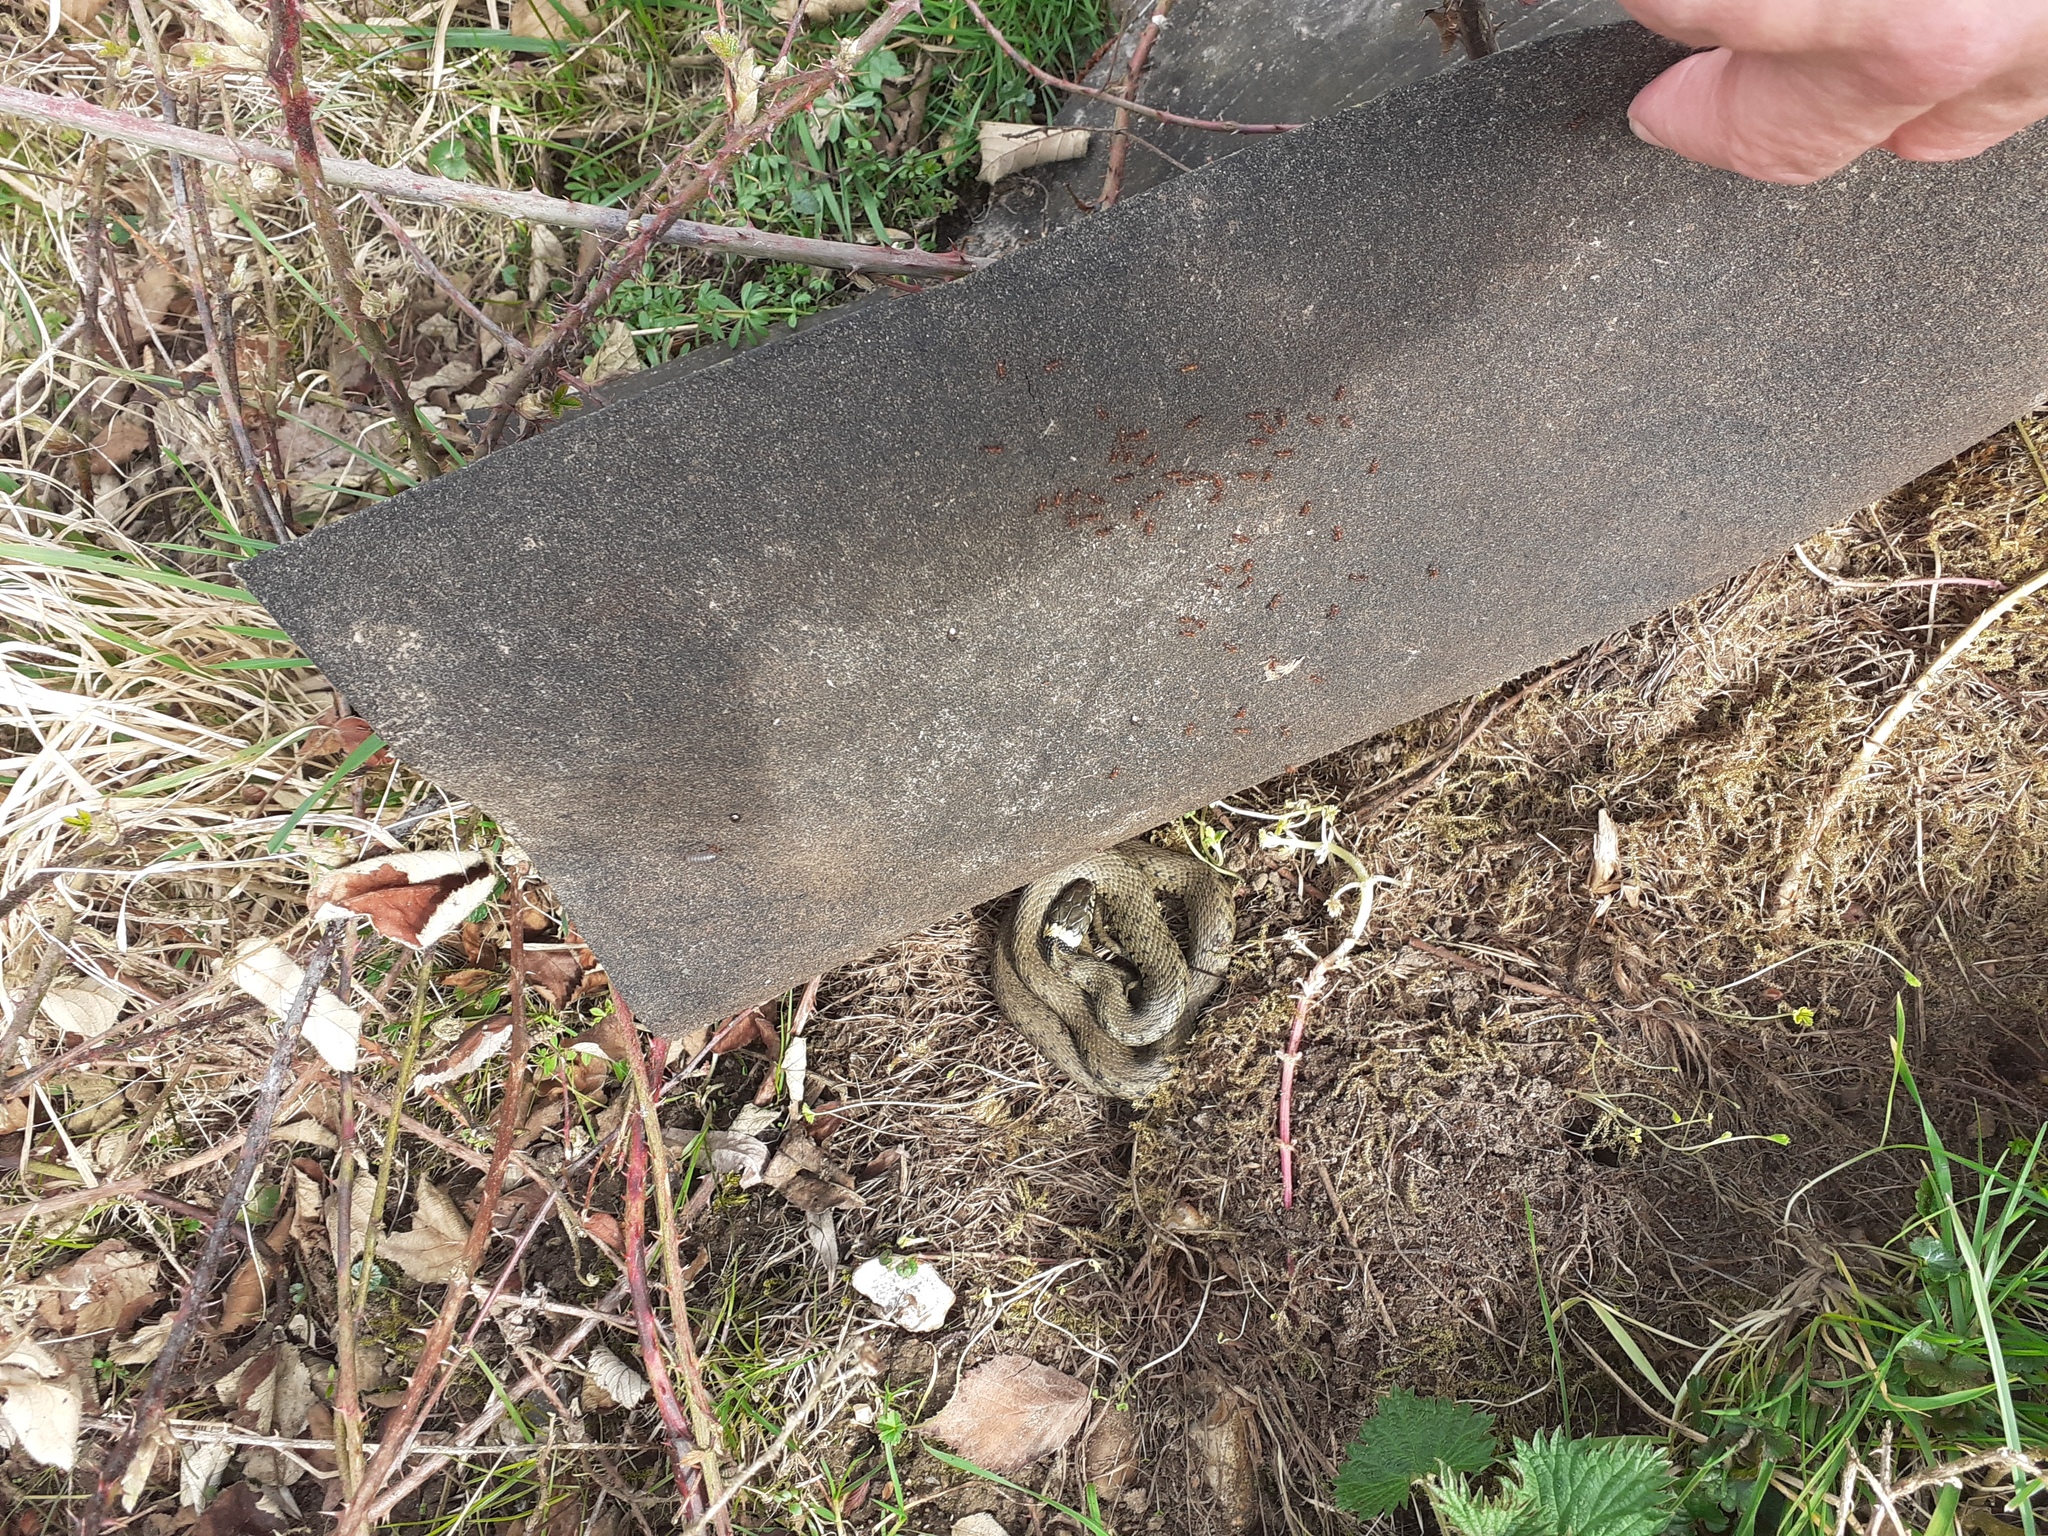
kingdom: Animalia
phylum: Chordata
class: Squamata
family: Colubridae
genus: Natrix
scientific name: Natrix helvetica
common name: Banded grass snake
